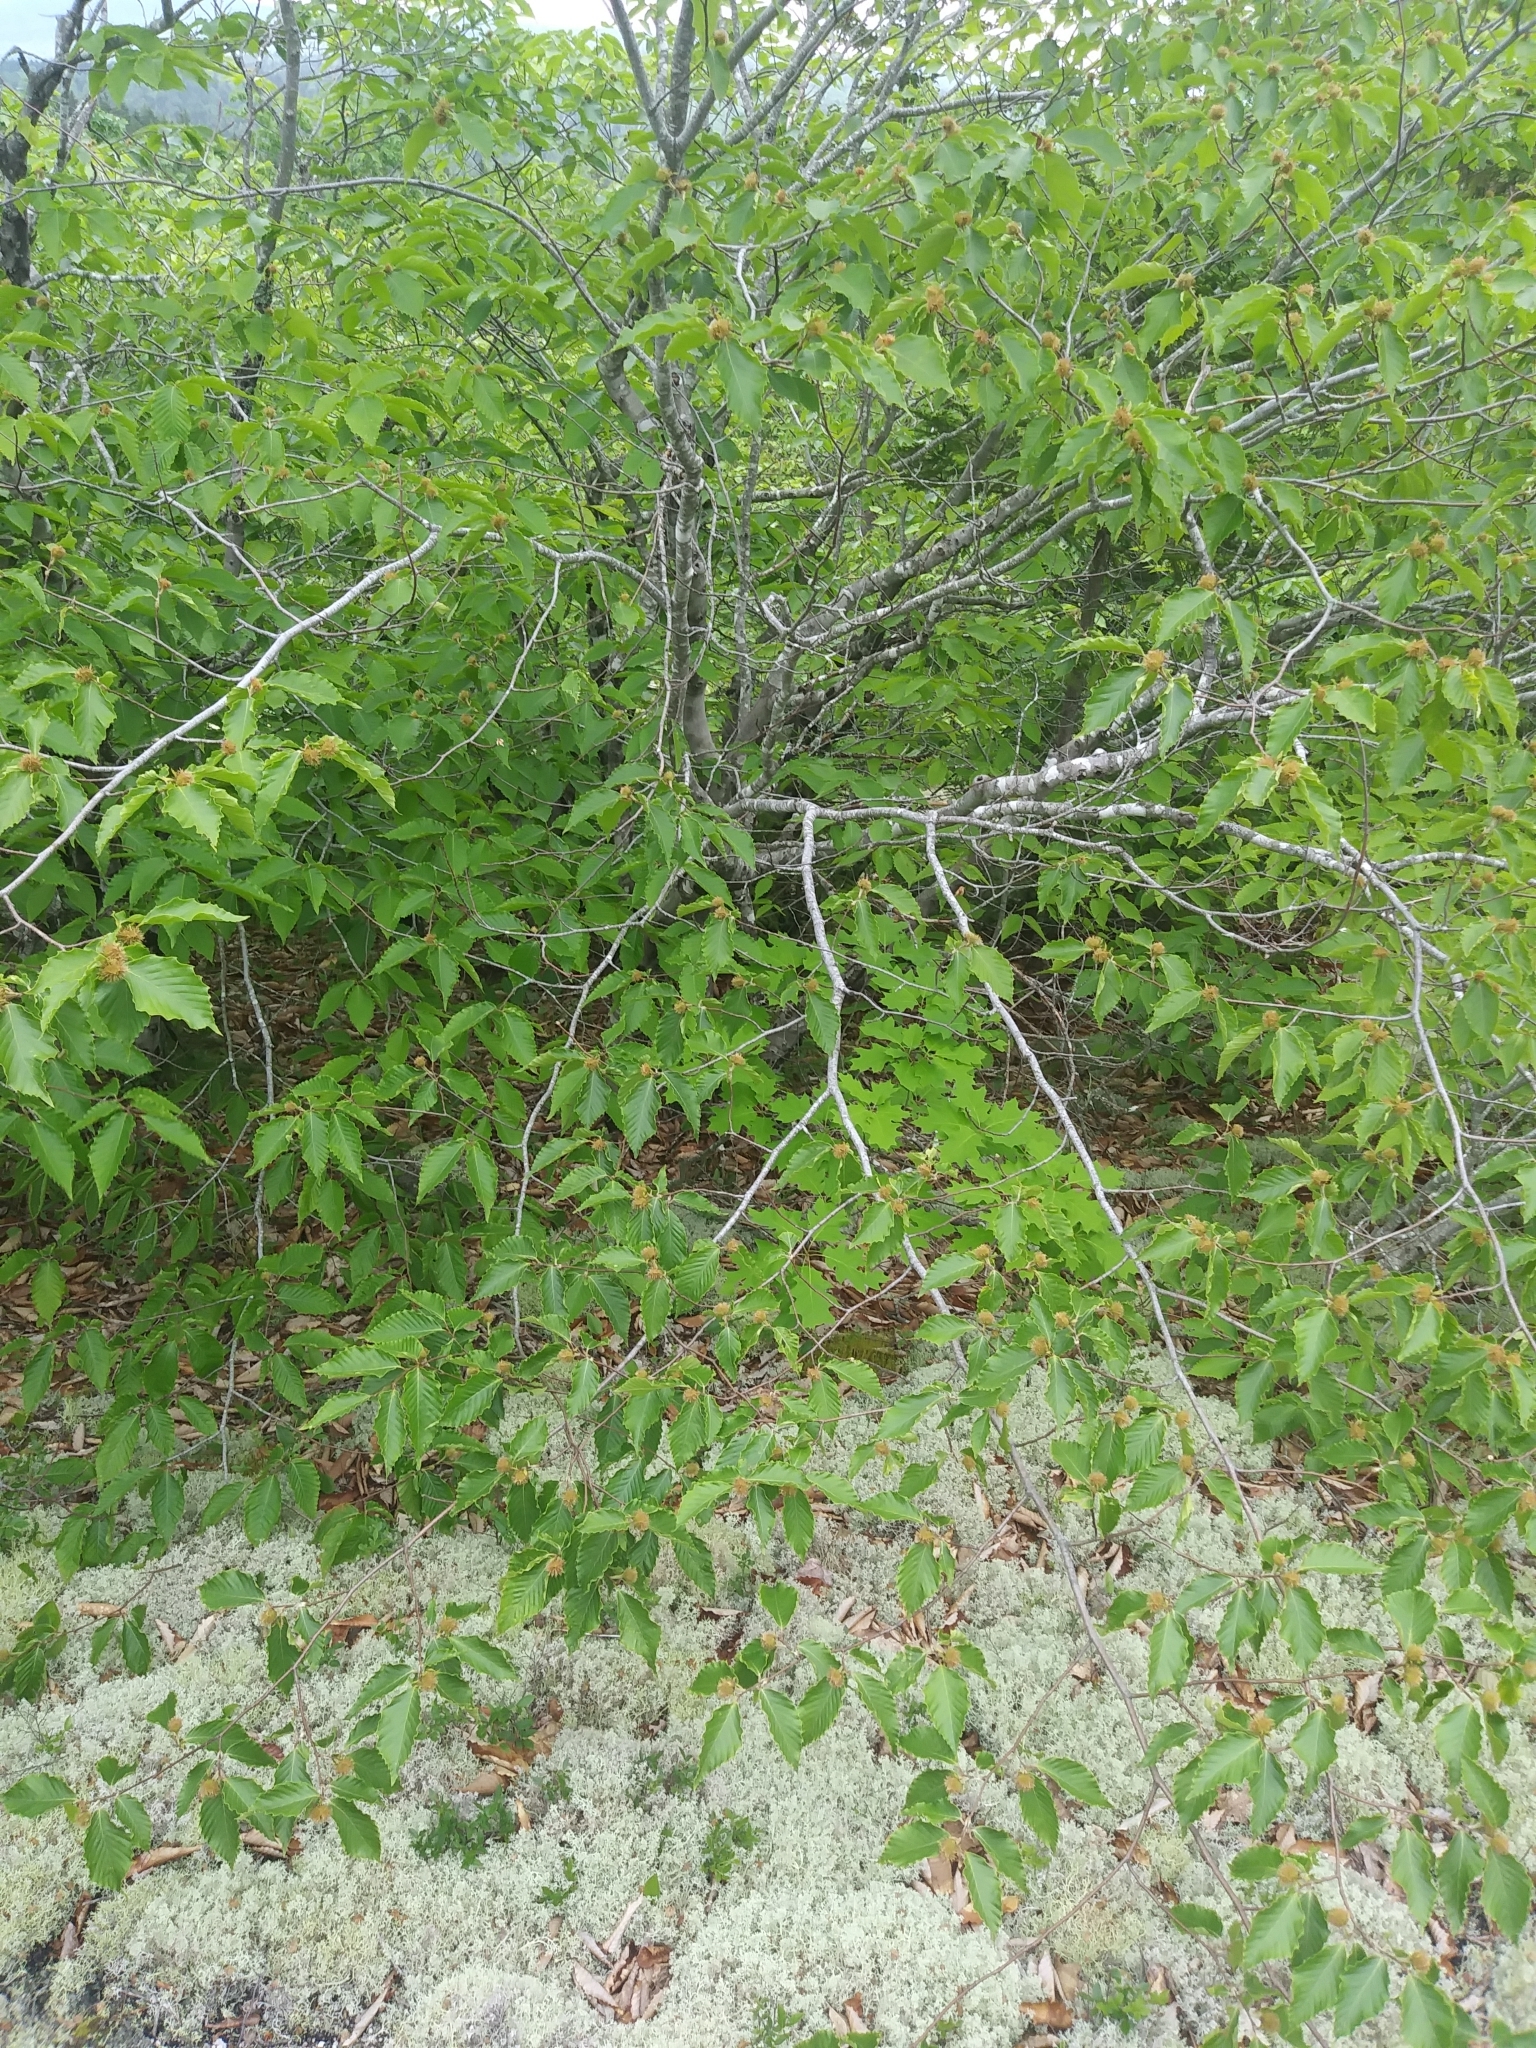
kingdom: Plantae
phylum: Tracheophyta
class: Magnoliopsida
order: Fagales
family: Fagaceae
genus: Fagus
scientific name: Fagus grandifolia
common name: American beech
